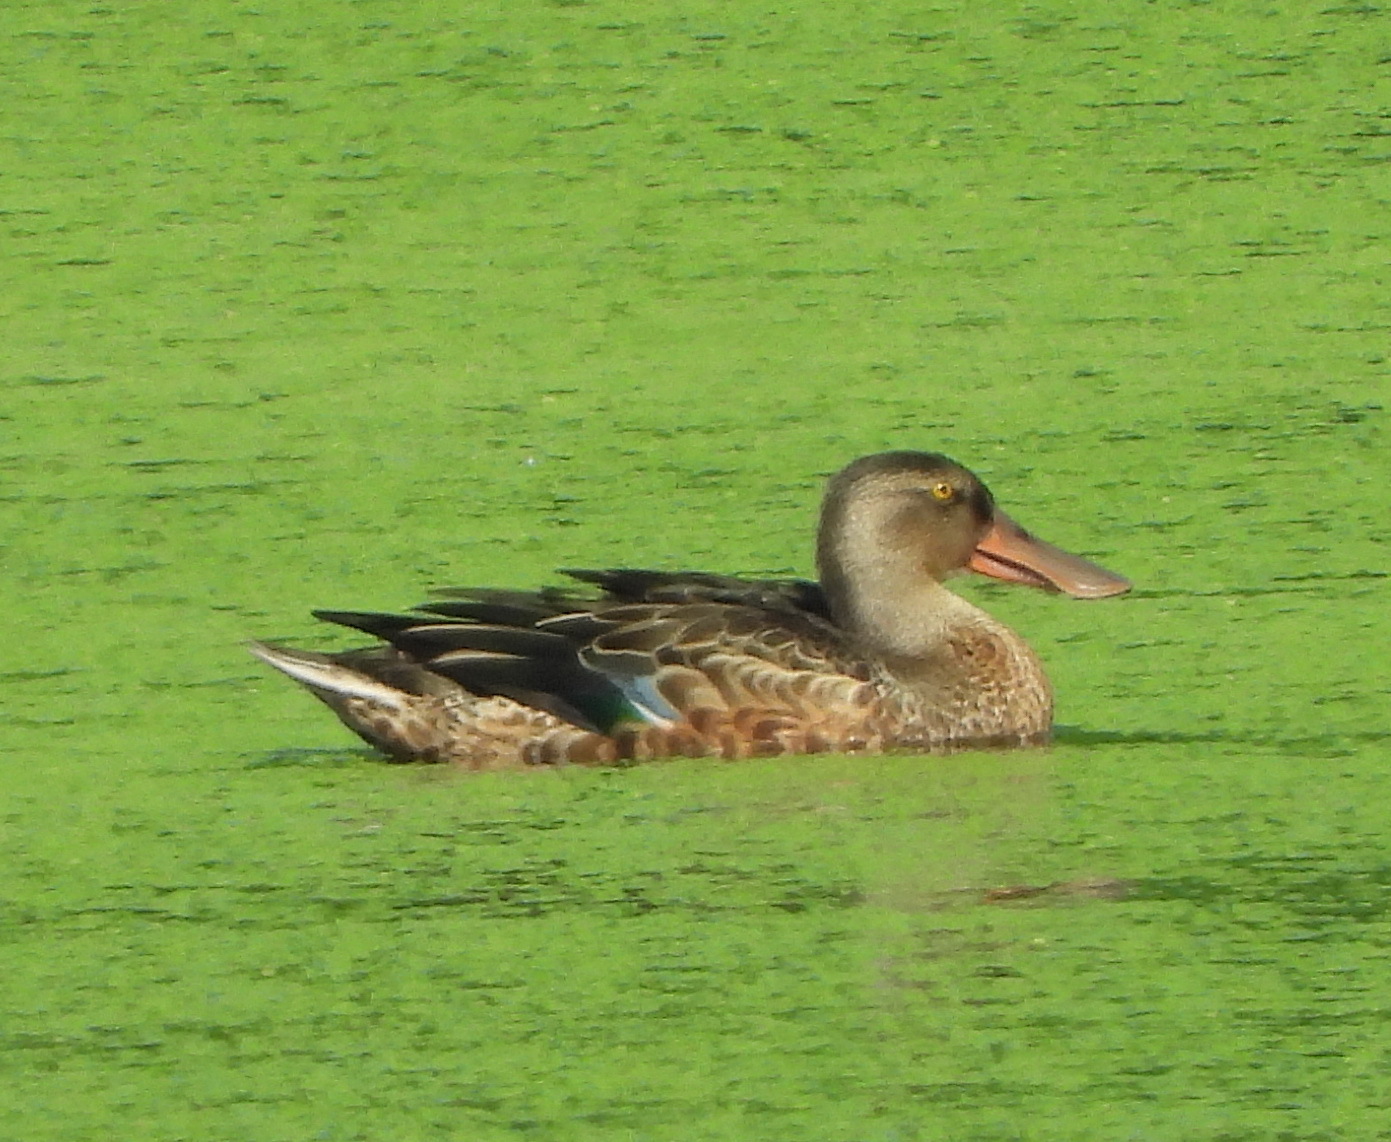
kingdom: Animalia
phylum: Chordata
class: Aves
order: Anseriformes
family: Anatidae
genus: Spatula
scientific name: Spatula clypeata
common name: Northern shoveler
